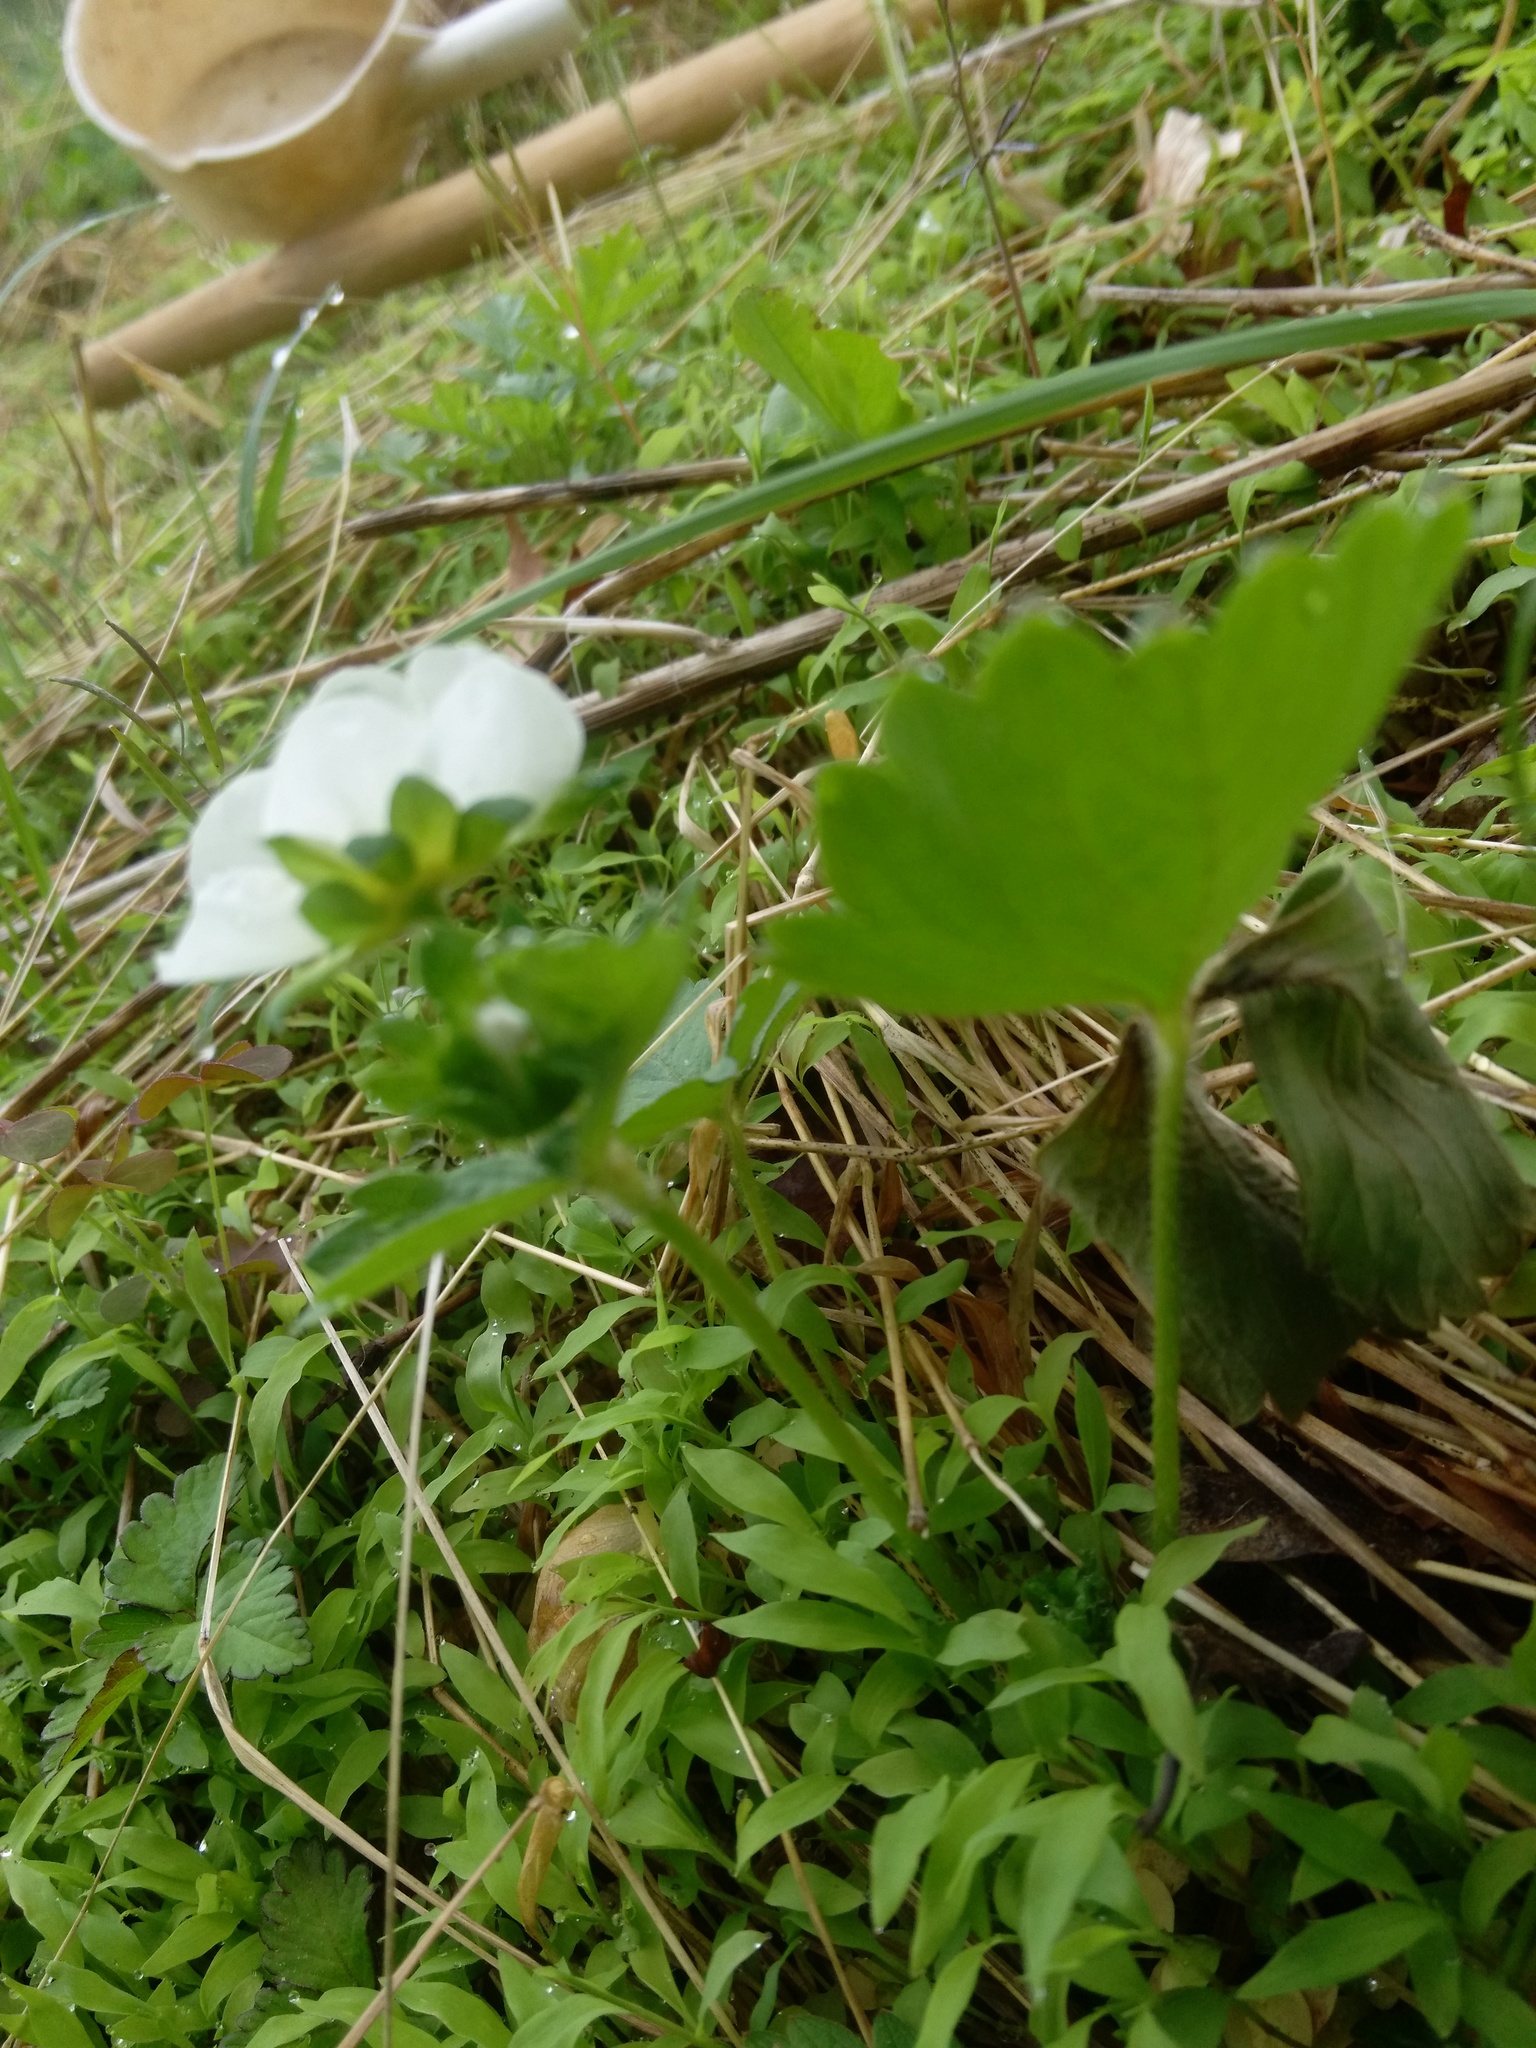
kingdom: Plantae
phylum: Tracheophyta
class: Magnoliopsida
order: Rosales
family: Rosaceae
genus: Fragaria
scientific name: Fragaria virginiana
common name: Thickleaved wild strawberry
